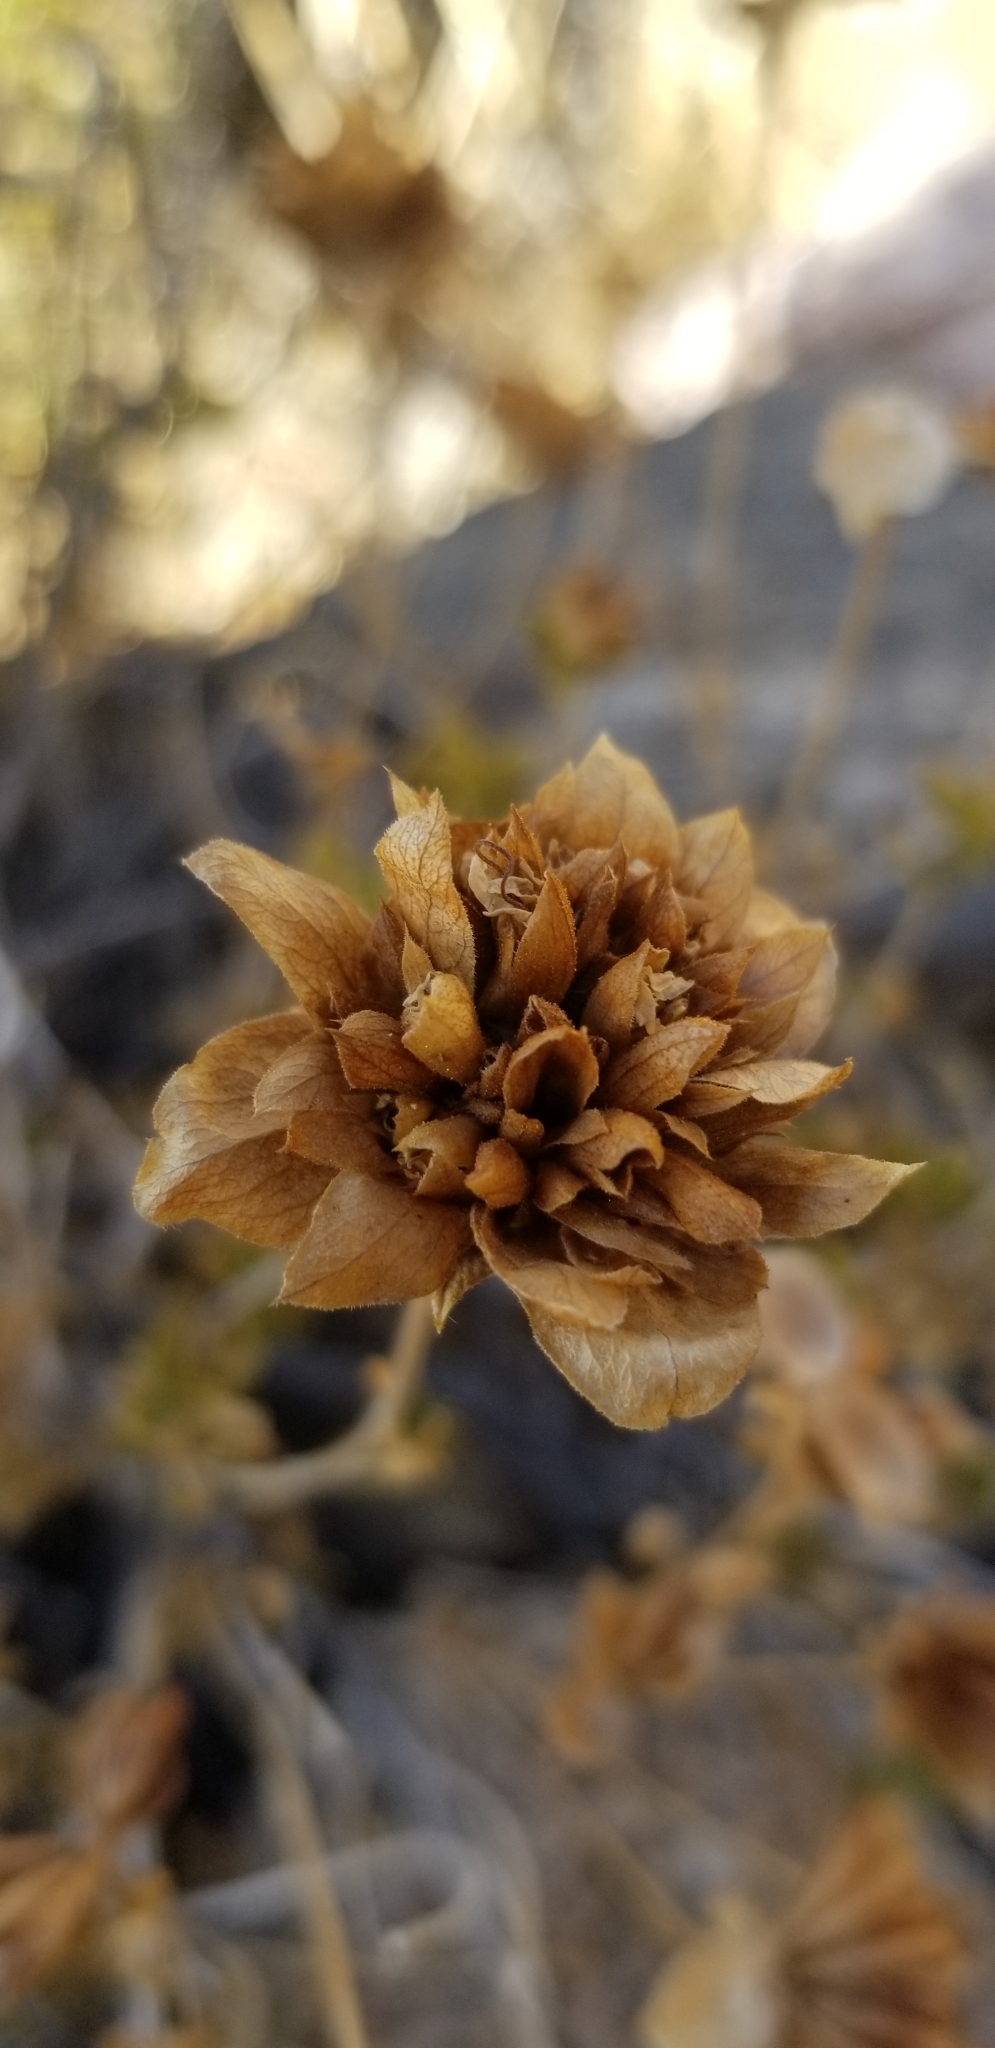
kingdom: Plantae
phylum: Tracheophyta
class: Magnoliopsida
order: Lamiales
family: Lamiaceae
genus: Salvia
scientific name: Salvia mohavensis
